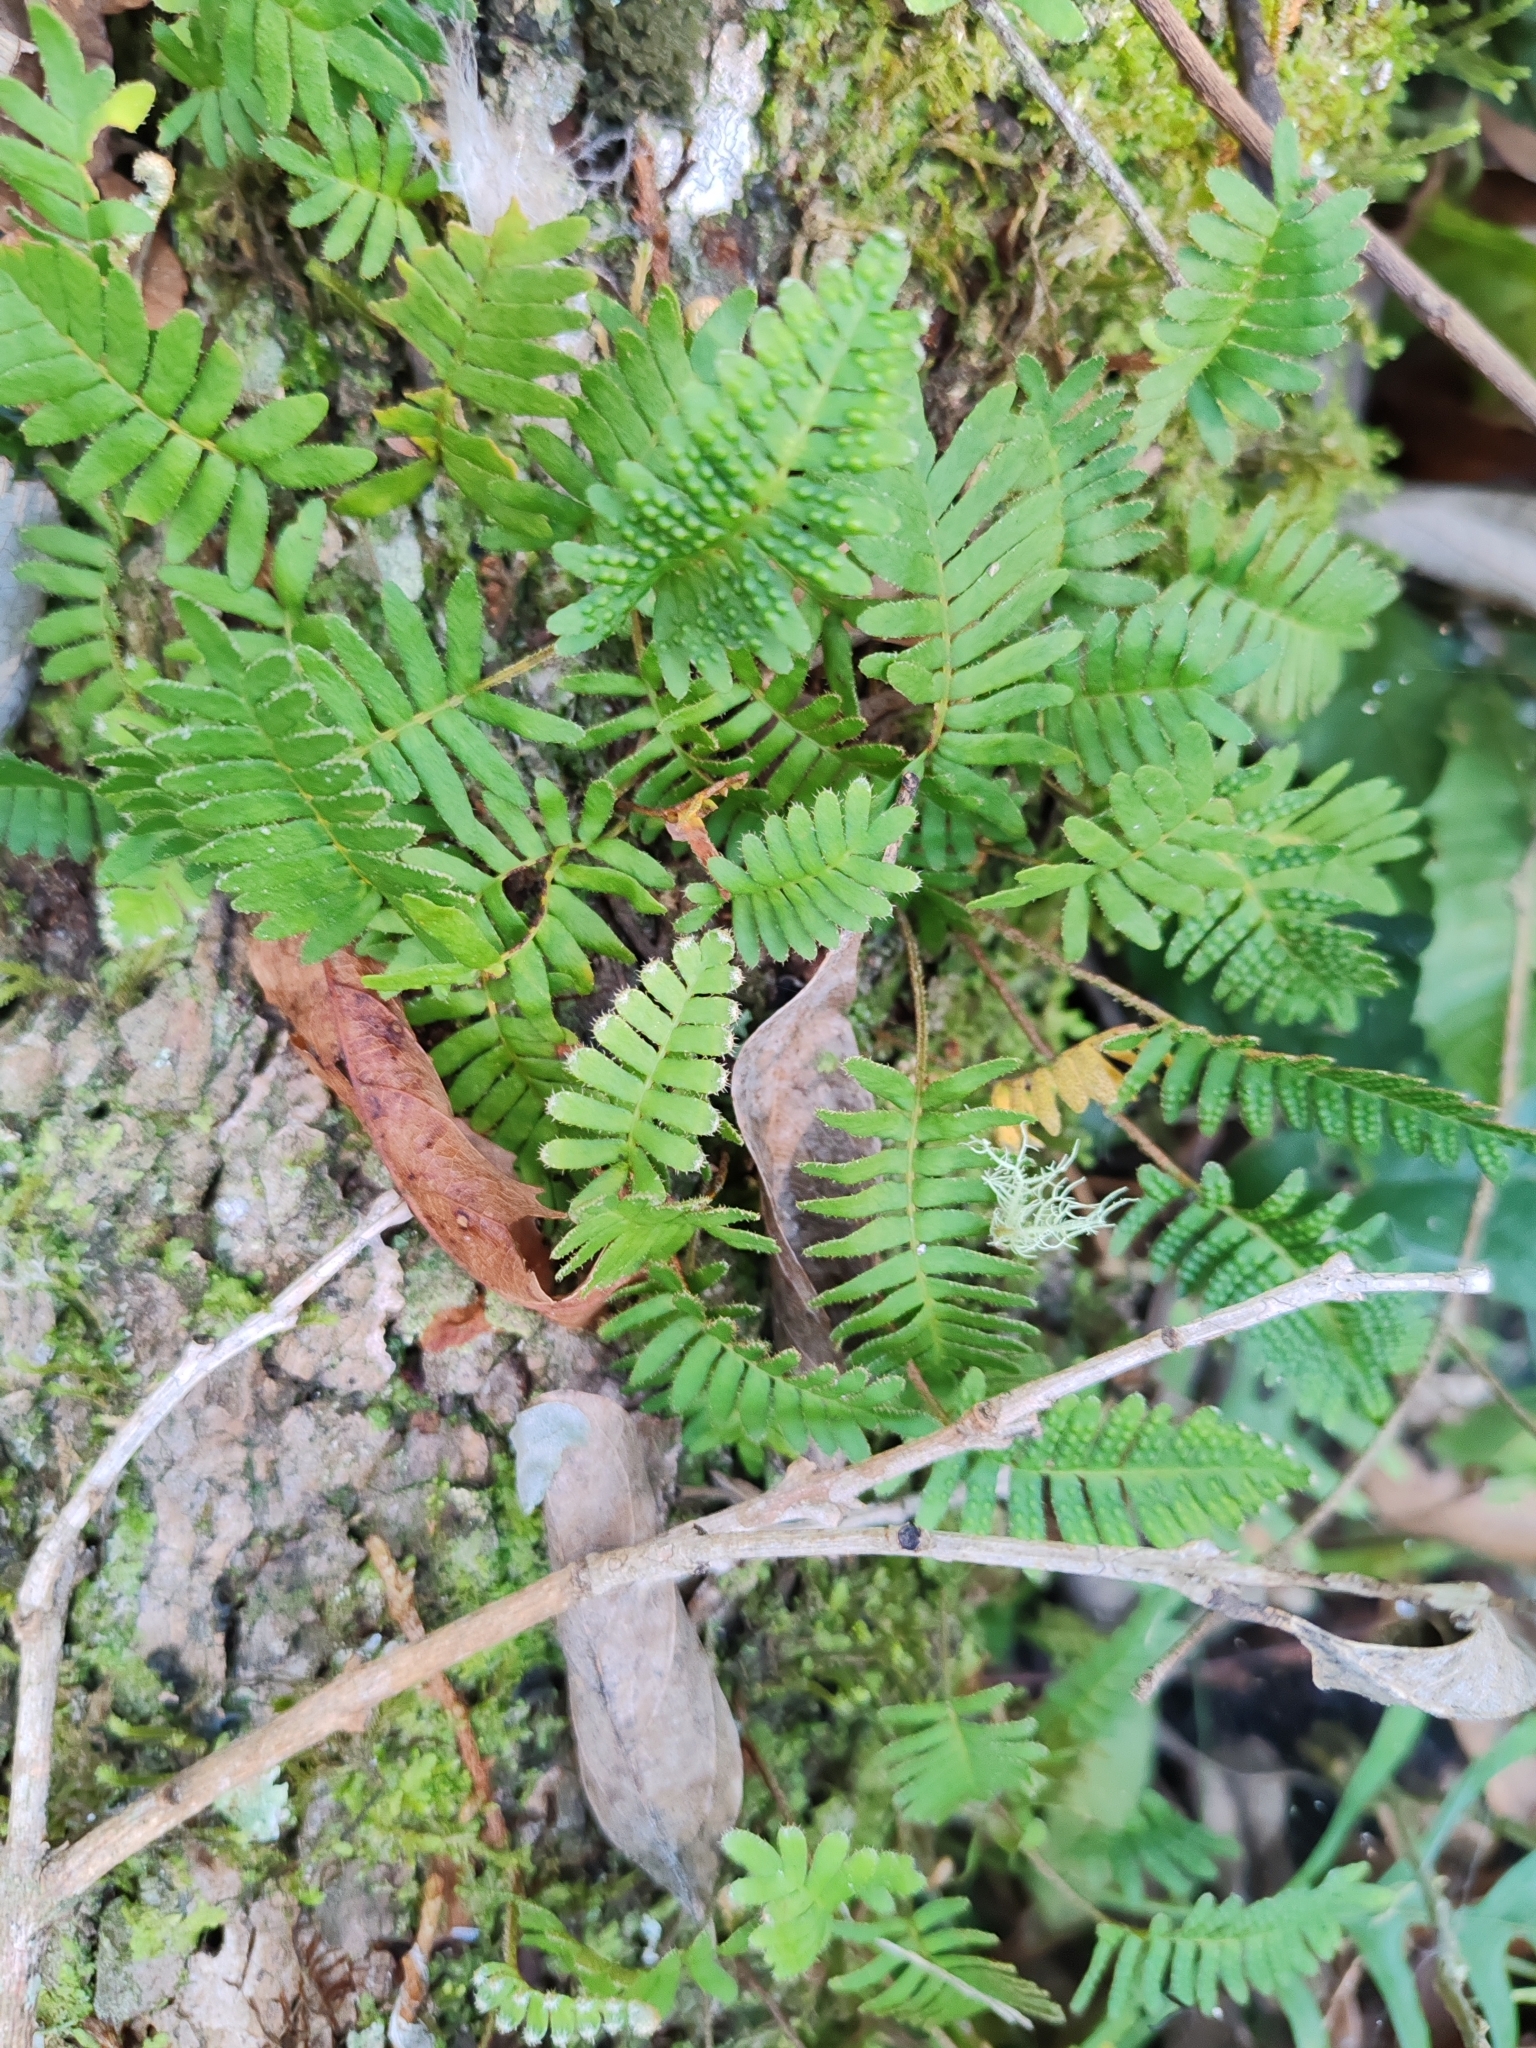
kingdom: Plantae
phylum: Tracheophyta
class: Polypodiopsida
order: Polypodiales
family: Polypodiaceae
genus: Pleopeltis
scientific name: Pleopeltis minima
